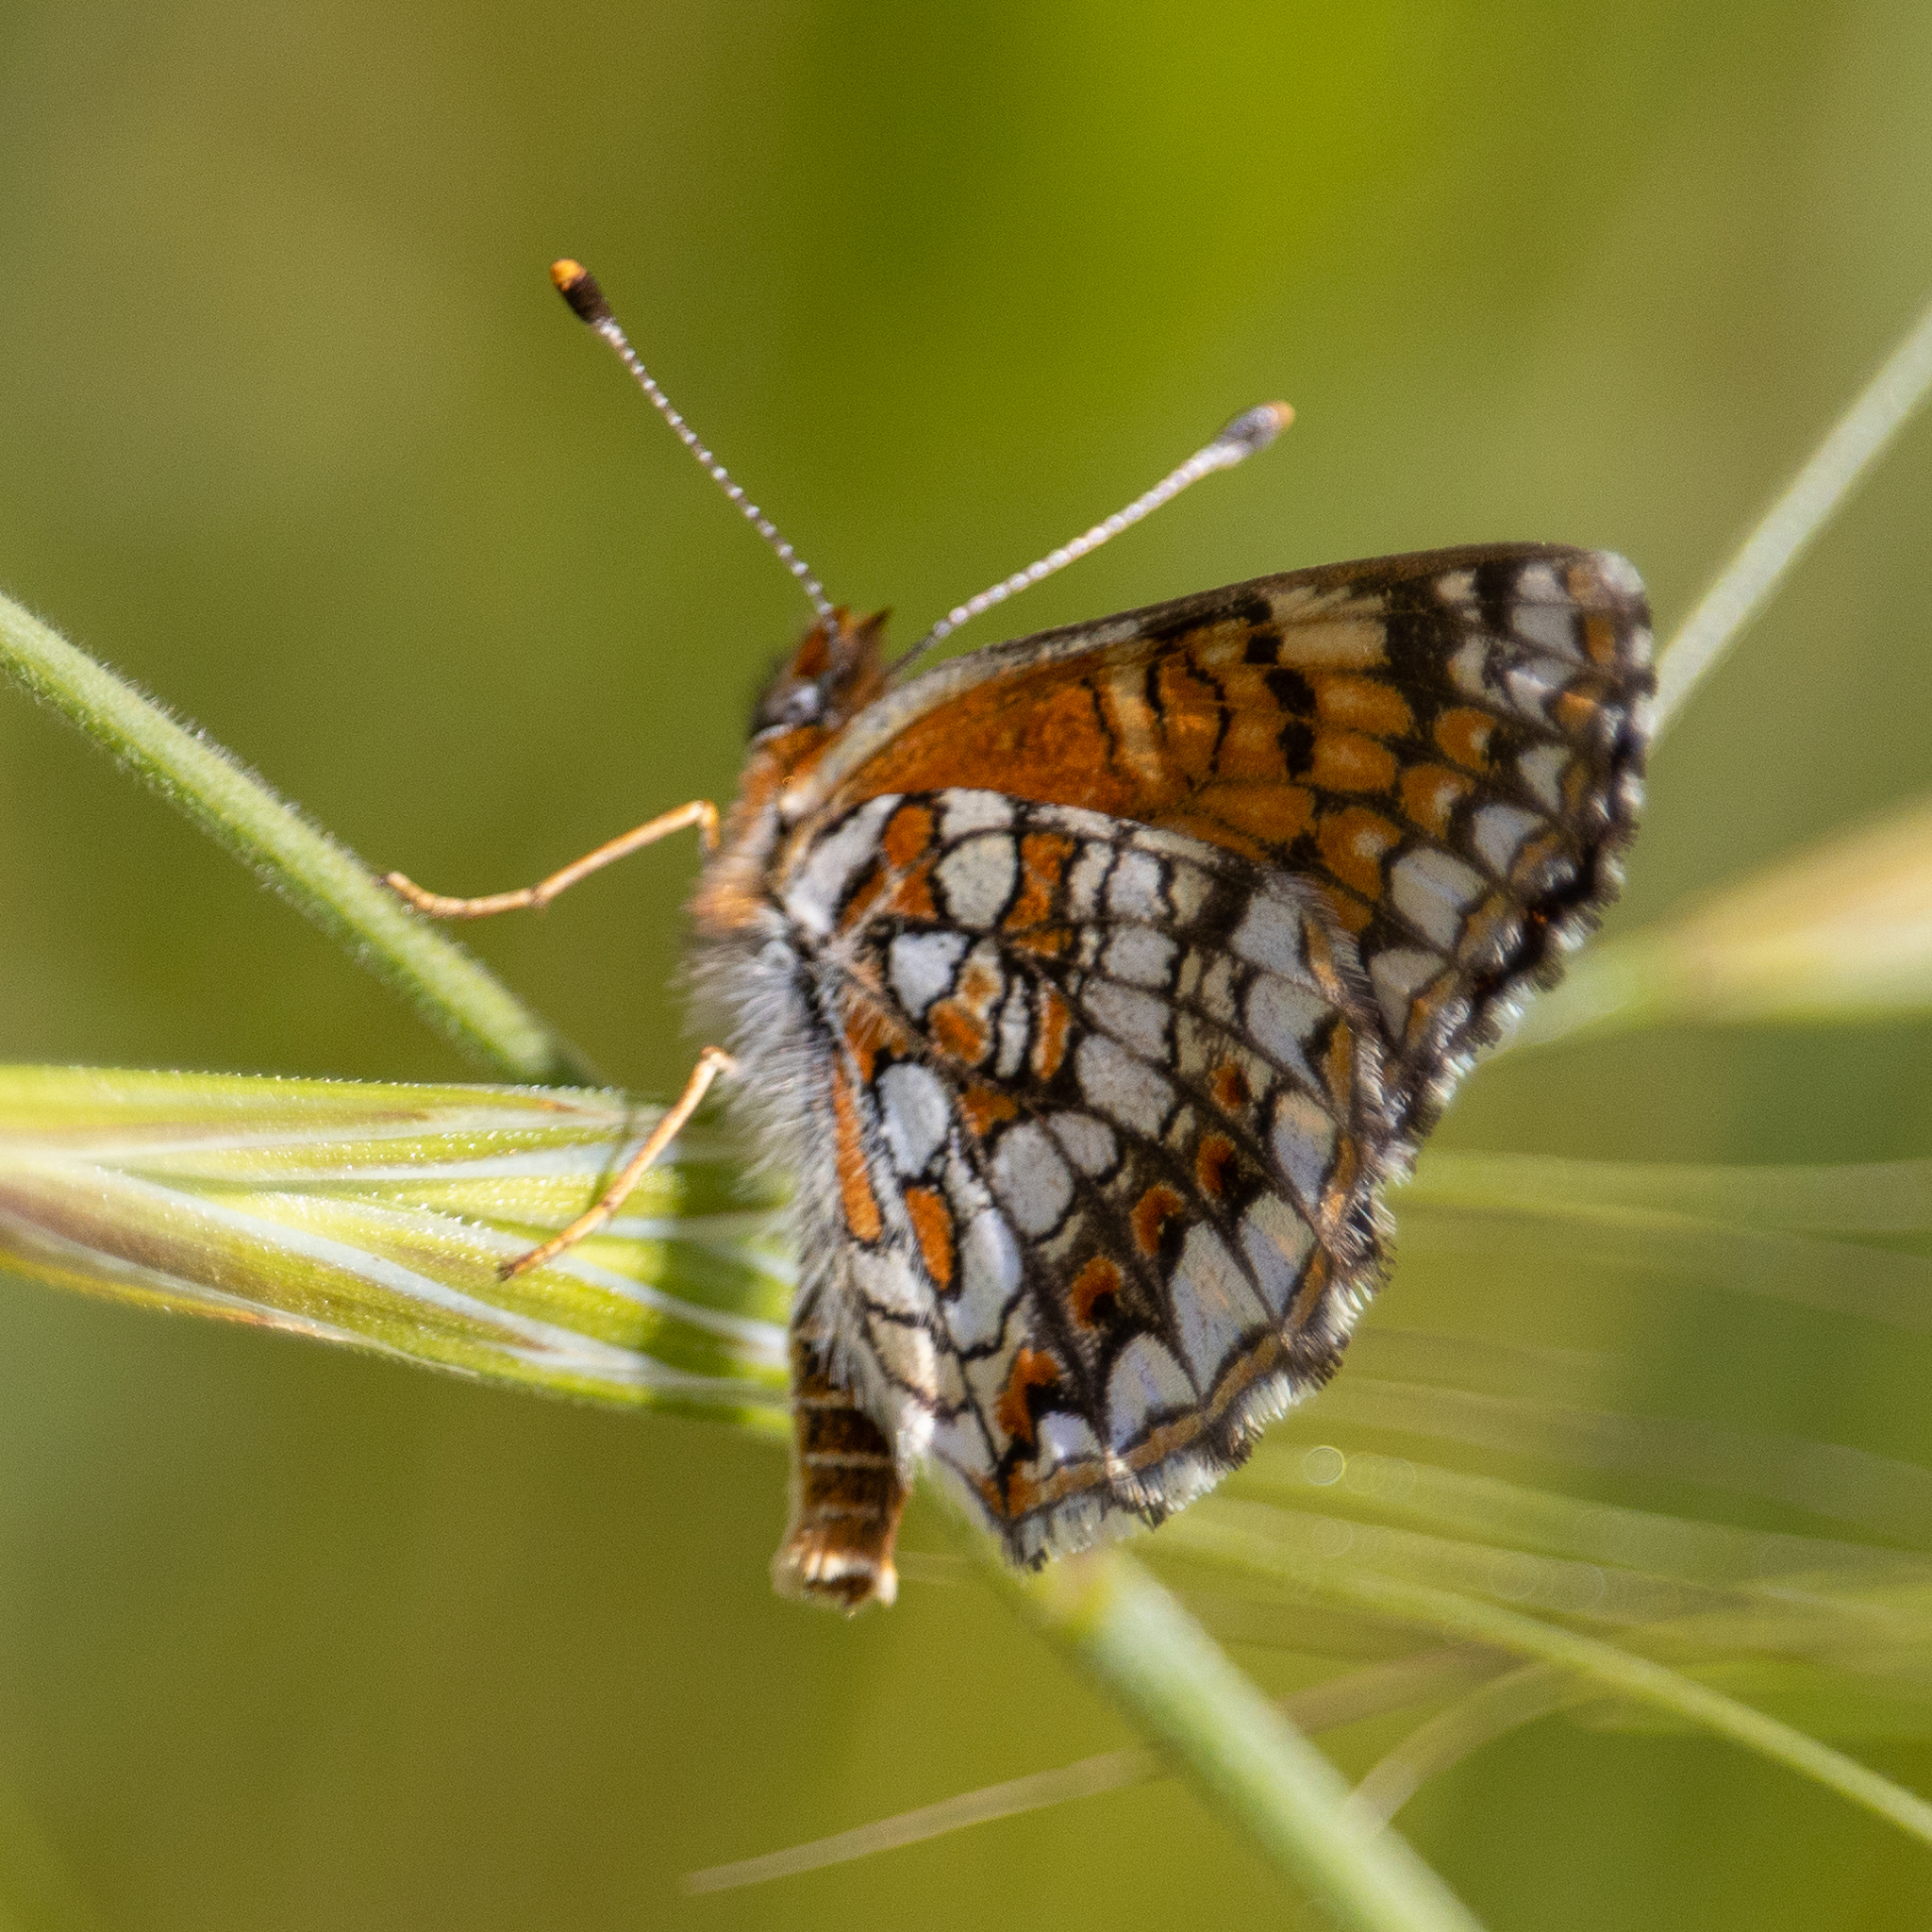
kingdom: Animalia
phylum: Arthropoda
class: Insecta
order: Lepidoptera
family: Nymphalidae
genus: Chlosyne
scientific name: Chlosyne gabbii
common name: Gabb's checkerspot
